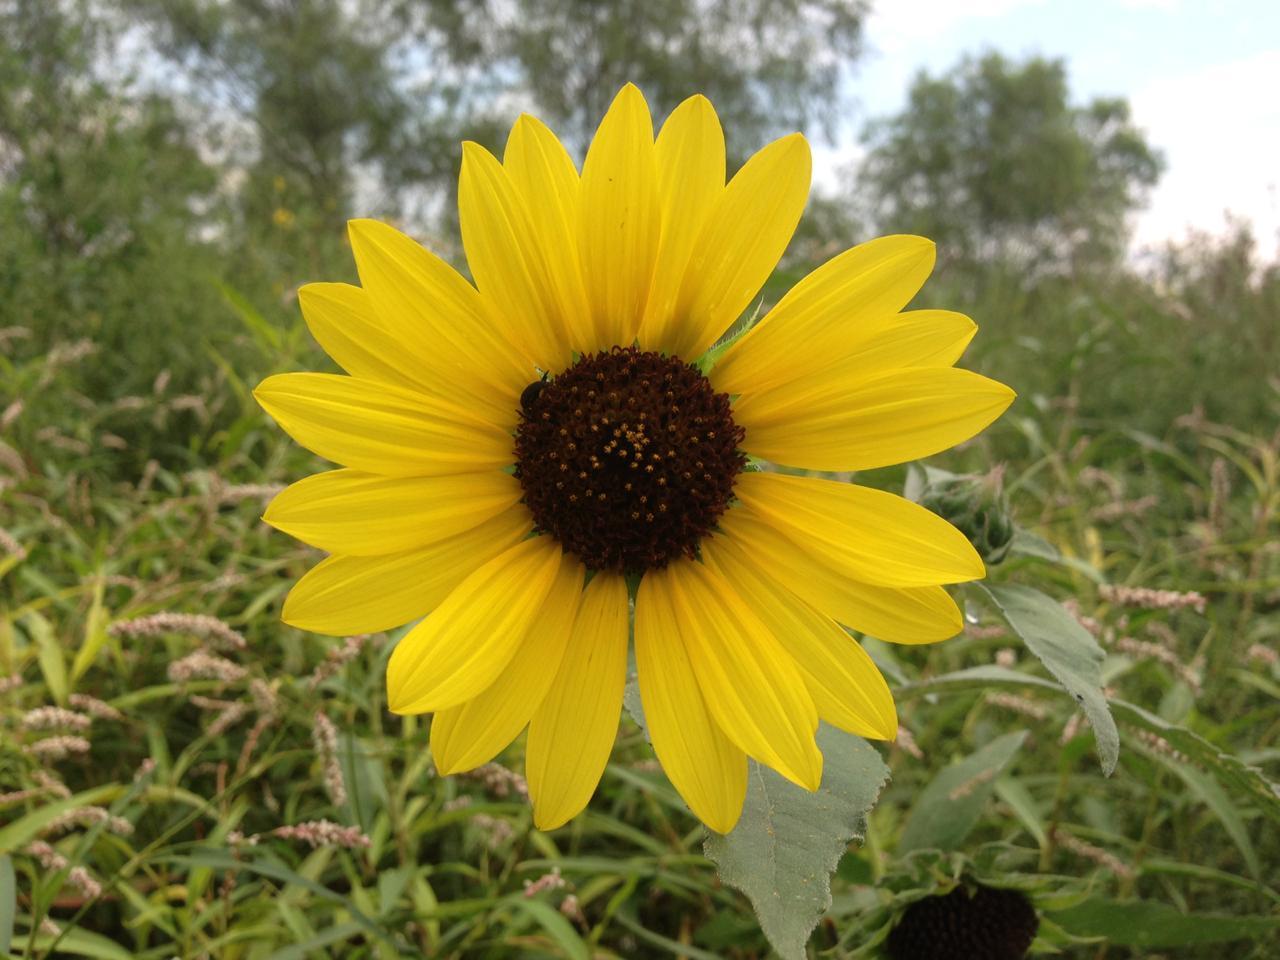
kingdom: Plantae
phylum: Tracheophyta
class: Magnoliopsida
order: Asterales
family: Asteraceae
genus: Helianthus
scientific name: Helianthus annuus
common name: Sunflower
